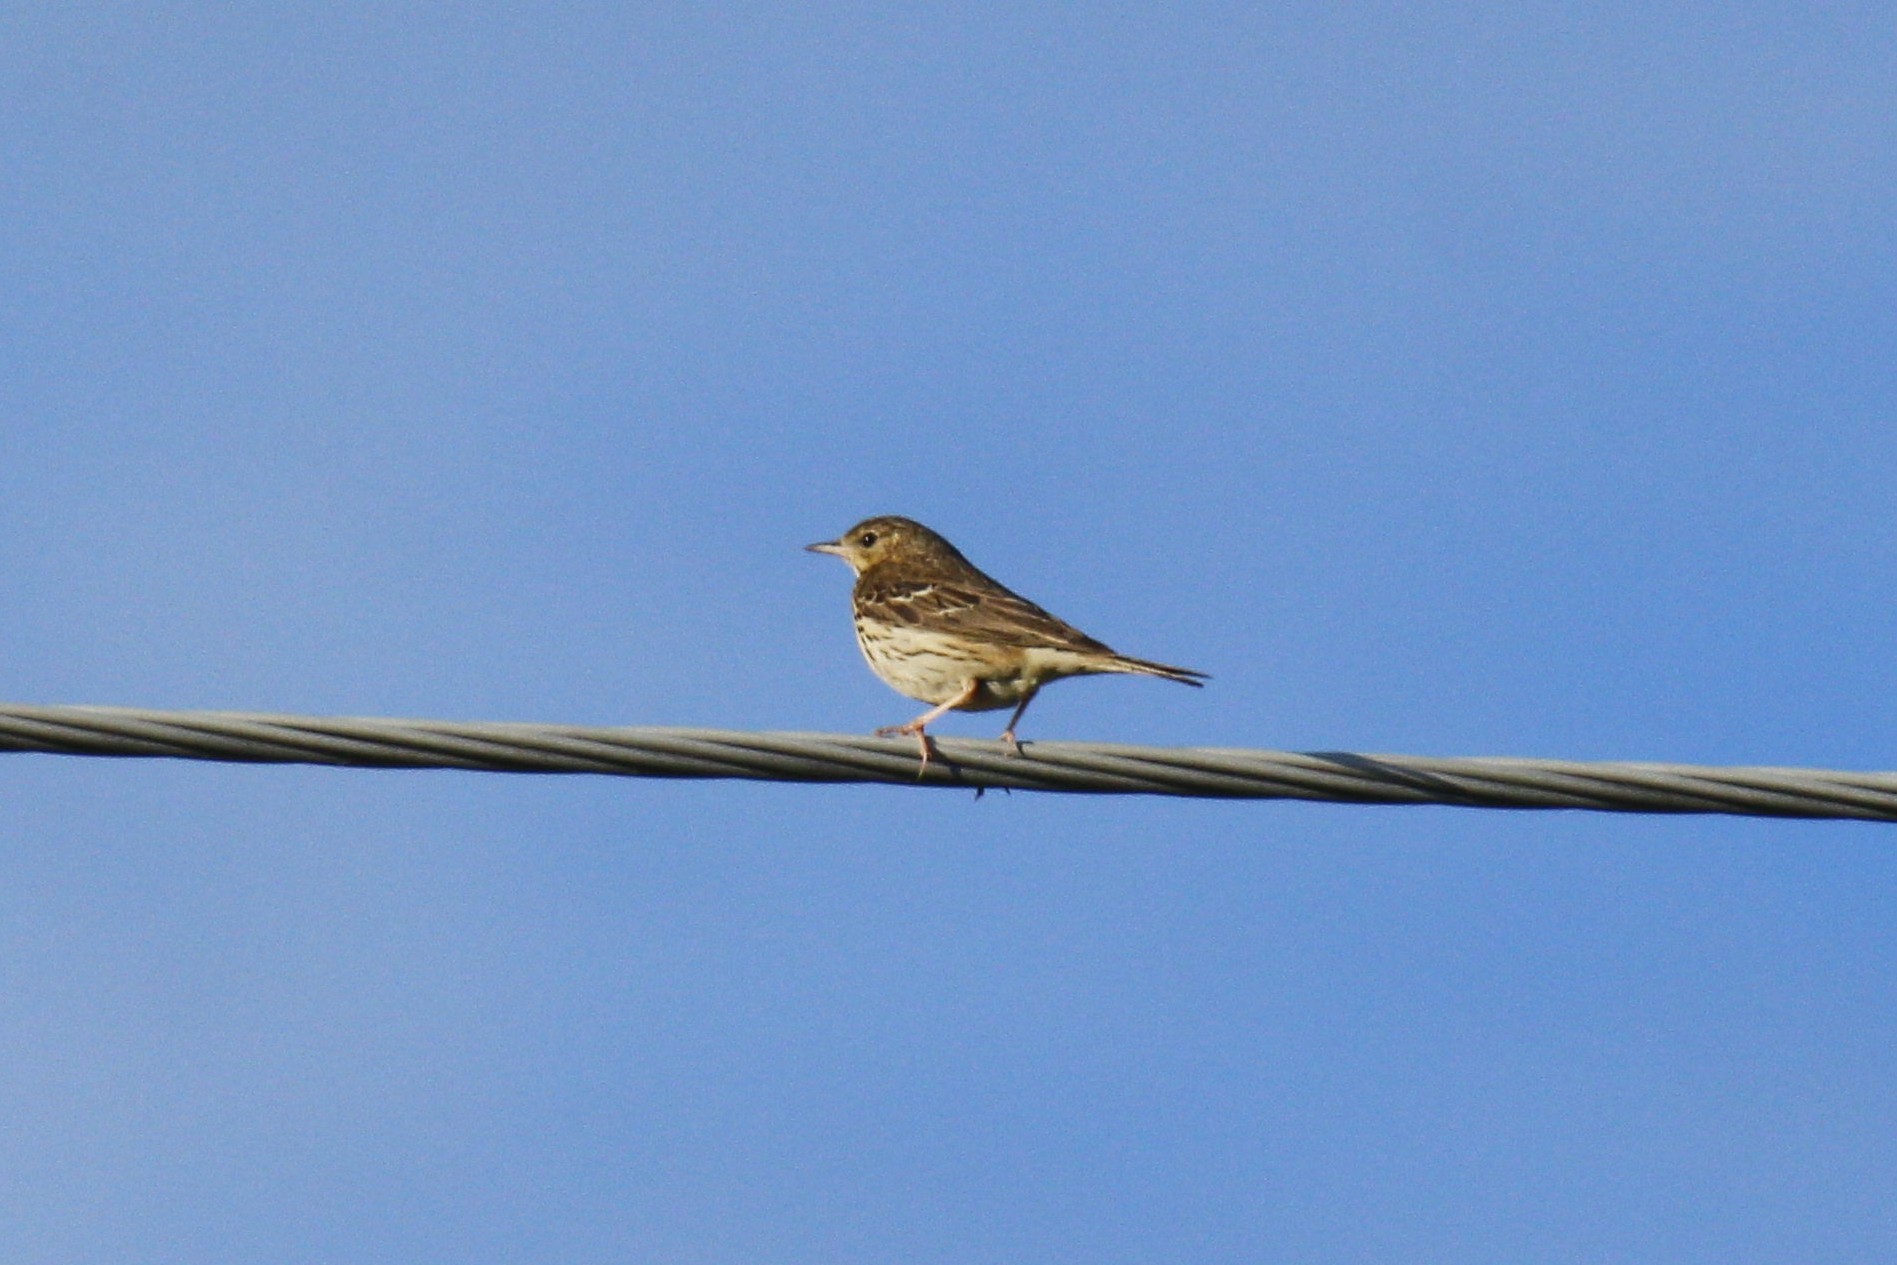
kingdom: Animalia
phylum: Chordata
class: Aves
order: Passeriformes
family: Motacillidae
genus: Anthus
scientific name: Anthus trivialis
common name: Tree pipit
